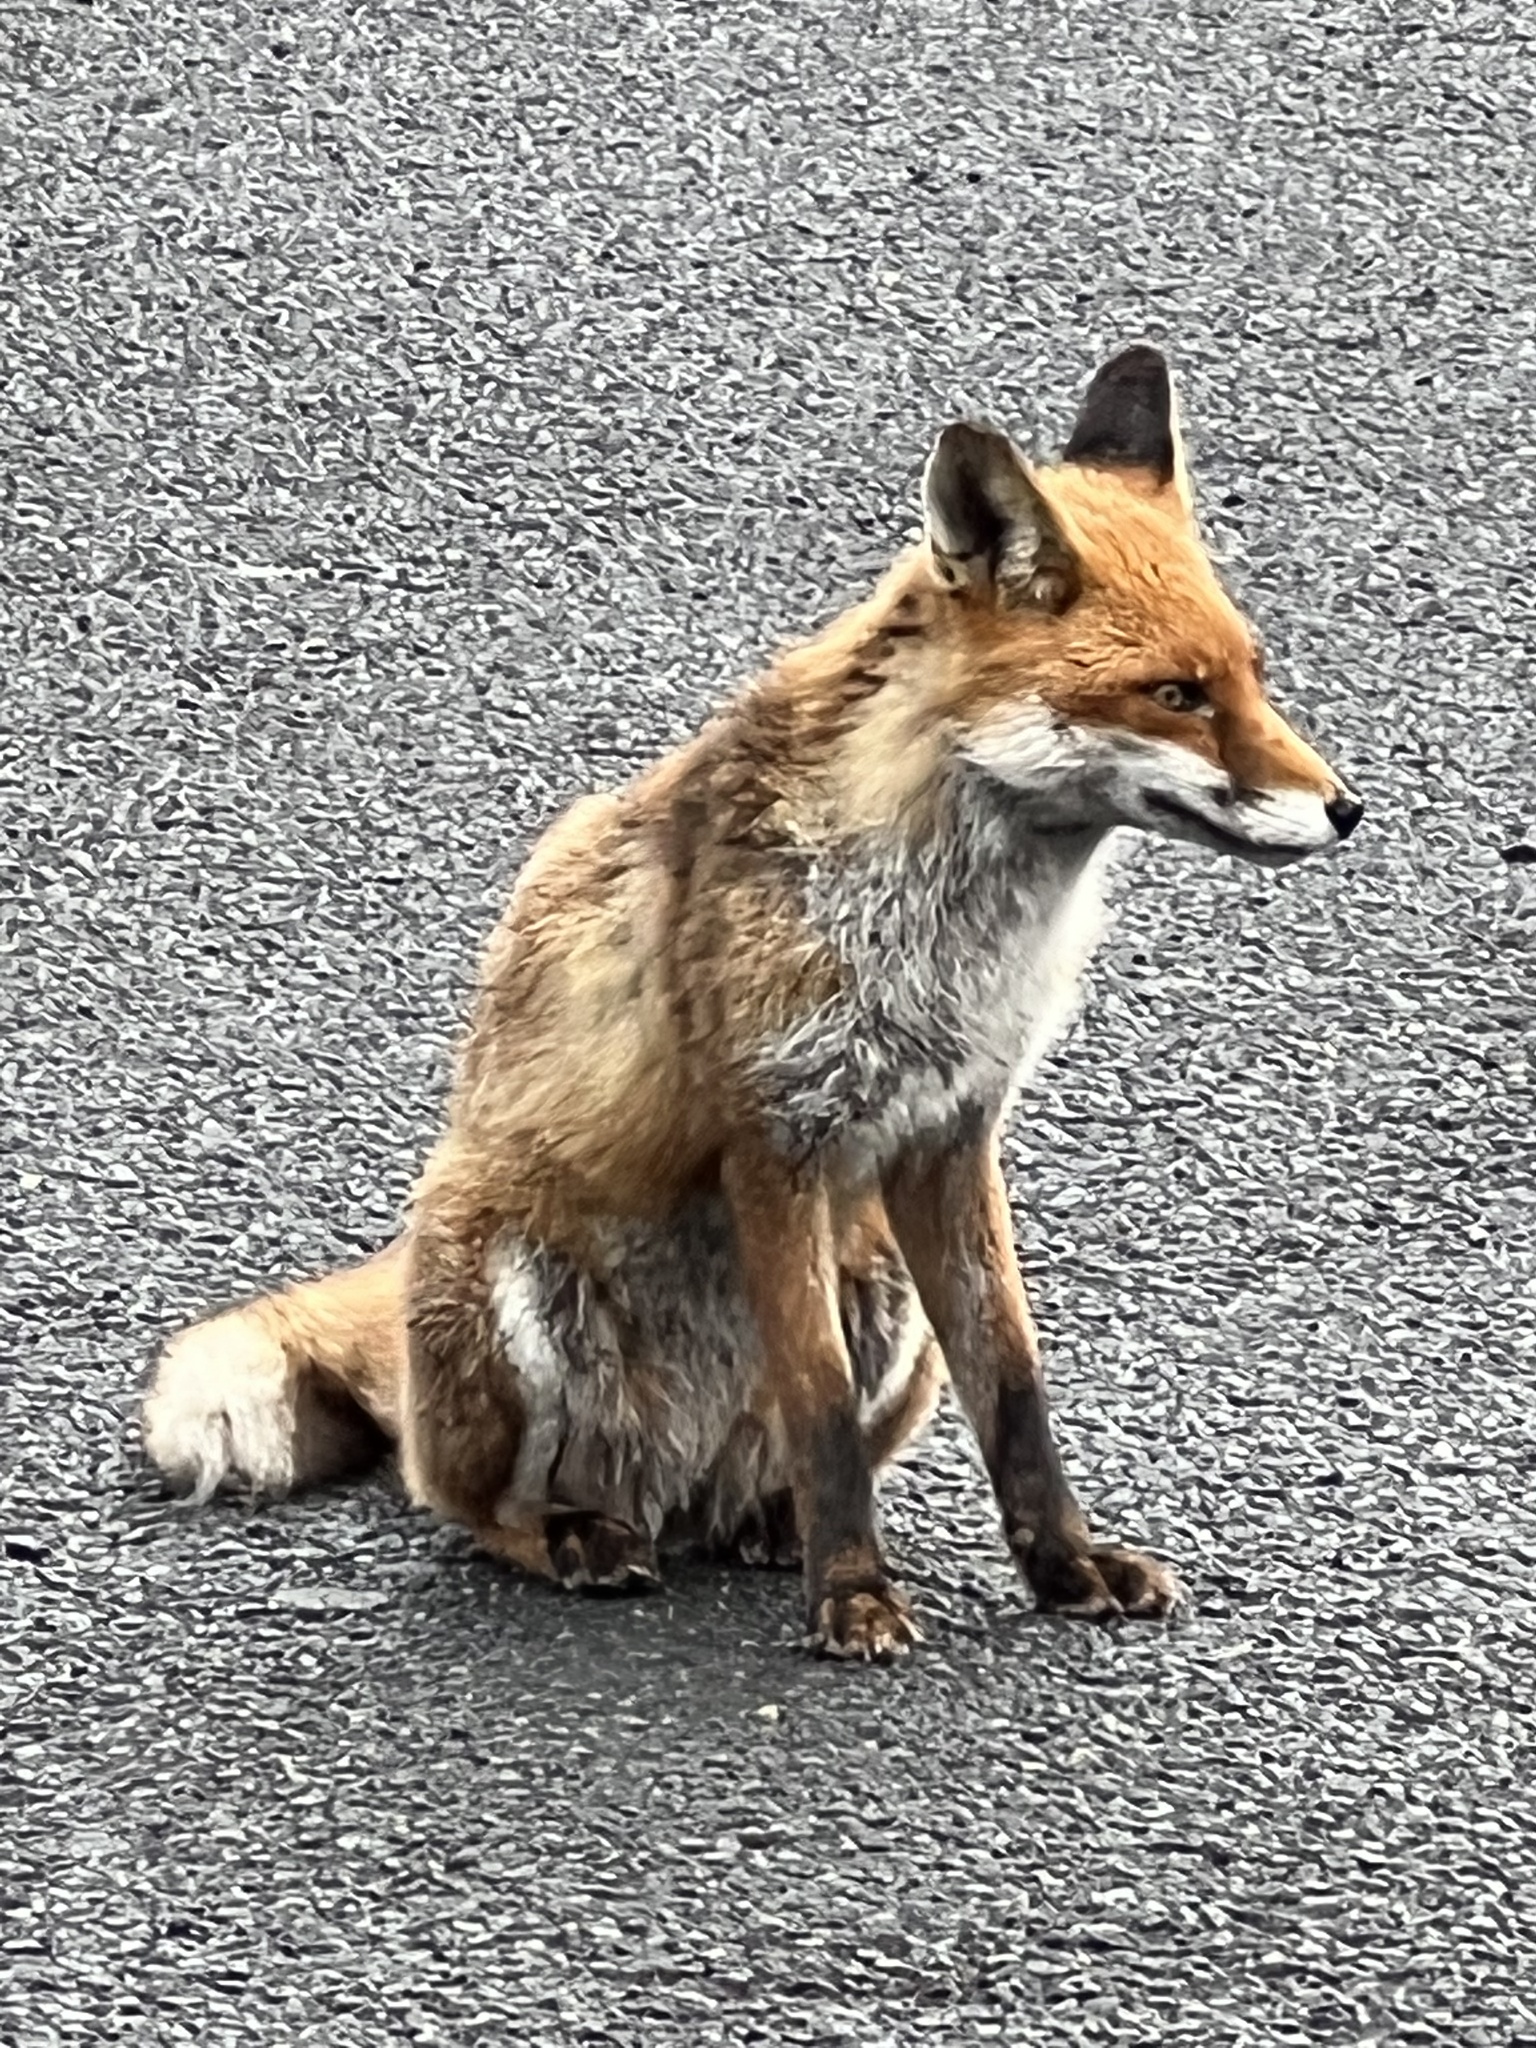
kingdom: Animalia
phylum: Chordata
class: Mammalia
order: Carnivora
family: Canidae
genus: Vulpes
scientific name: Vulpes vulpes
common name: Red fox
